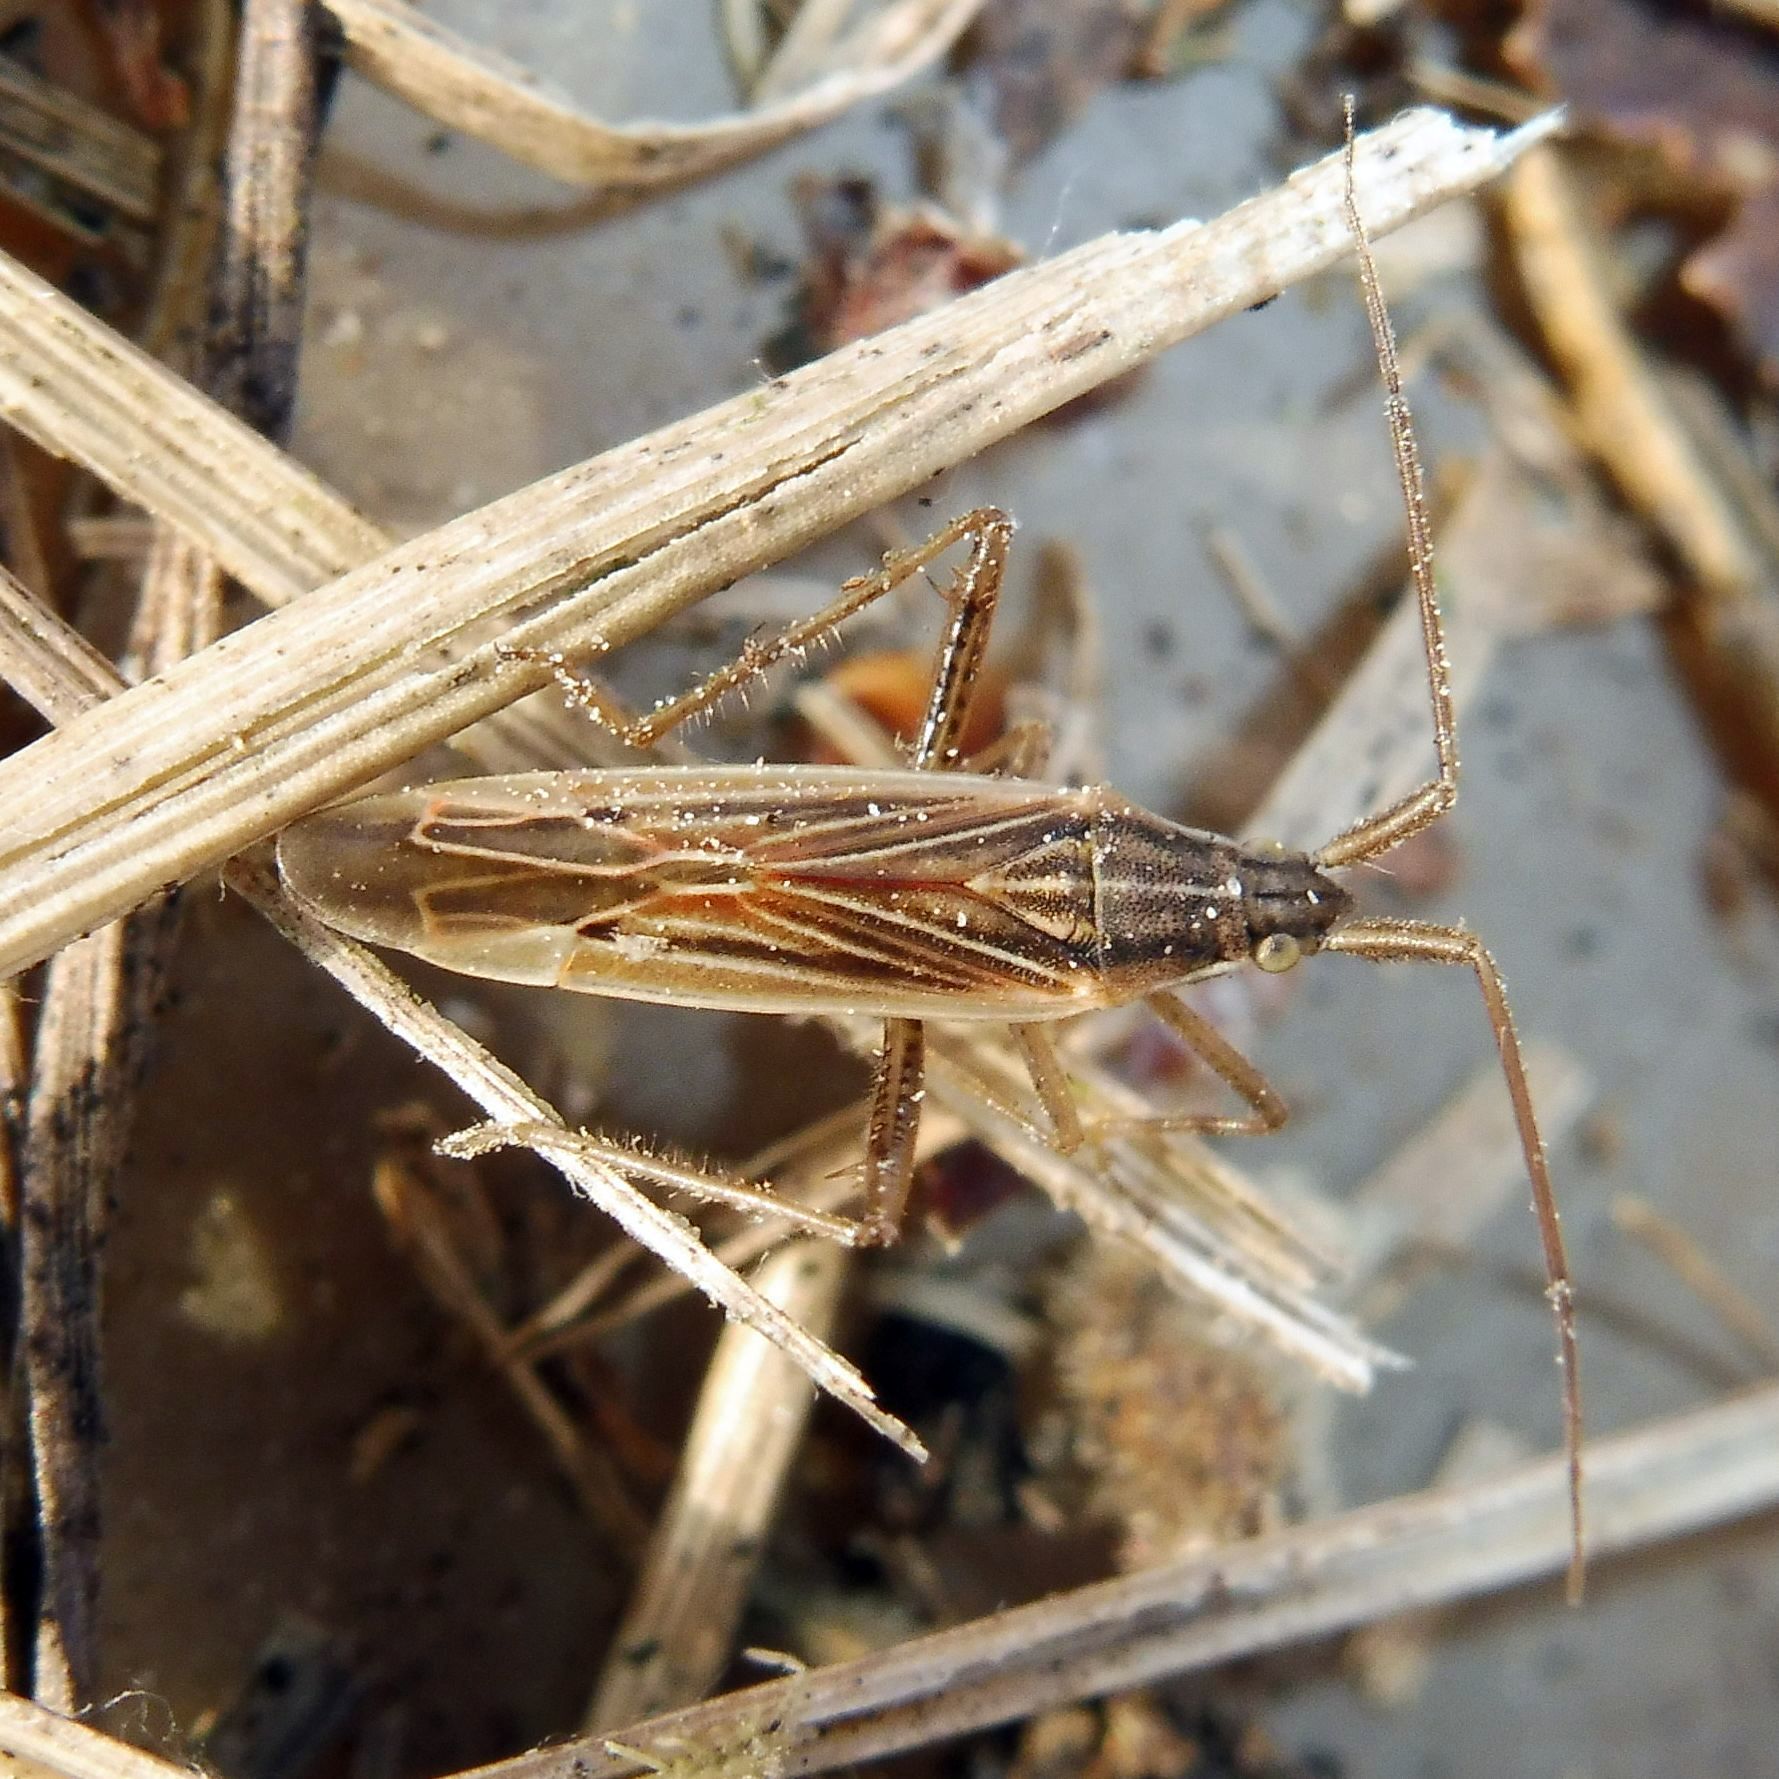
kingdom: Animalia
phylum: Arthropoda
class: Insecta
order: Hemiptera
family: Miridae
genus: Stenodema
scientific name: Stenodema calcarata
